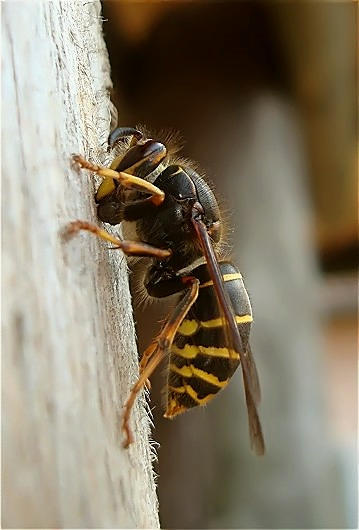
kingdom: Animalia
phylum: Arthropoda
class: Insecta
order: Hymenoptera
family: Vespidae
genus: Dolichovespula
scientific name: Dolichovespula media
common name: Median wasp
